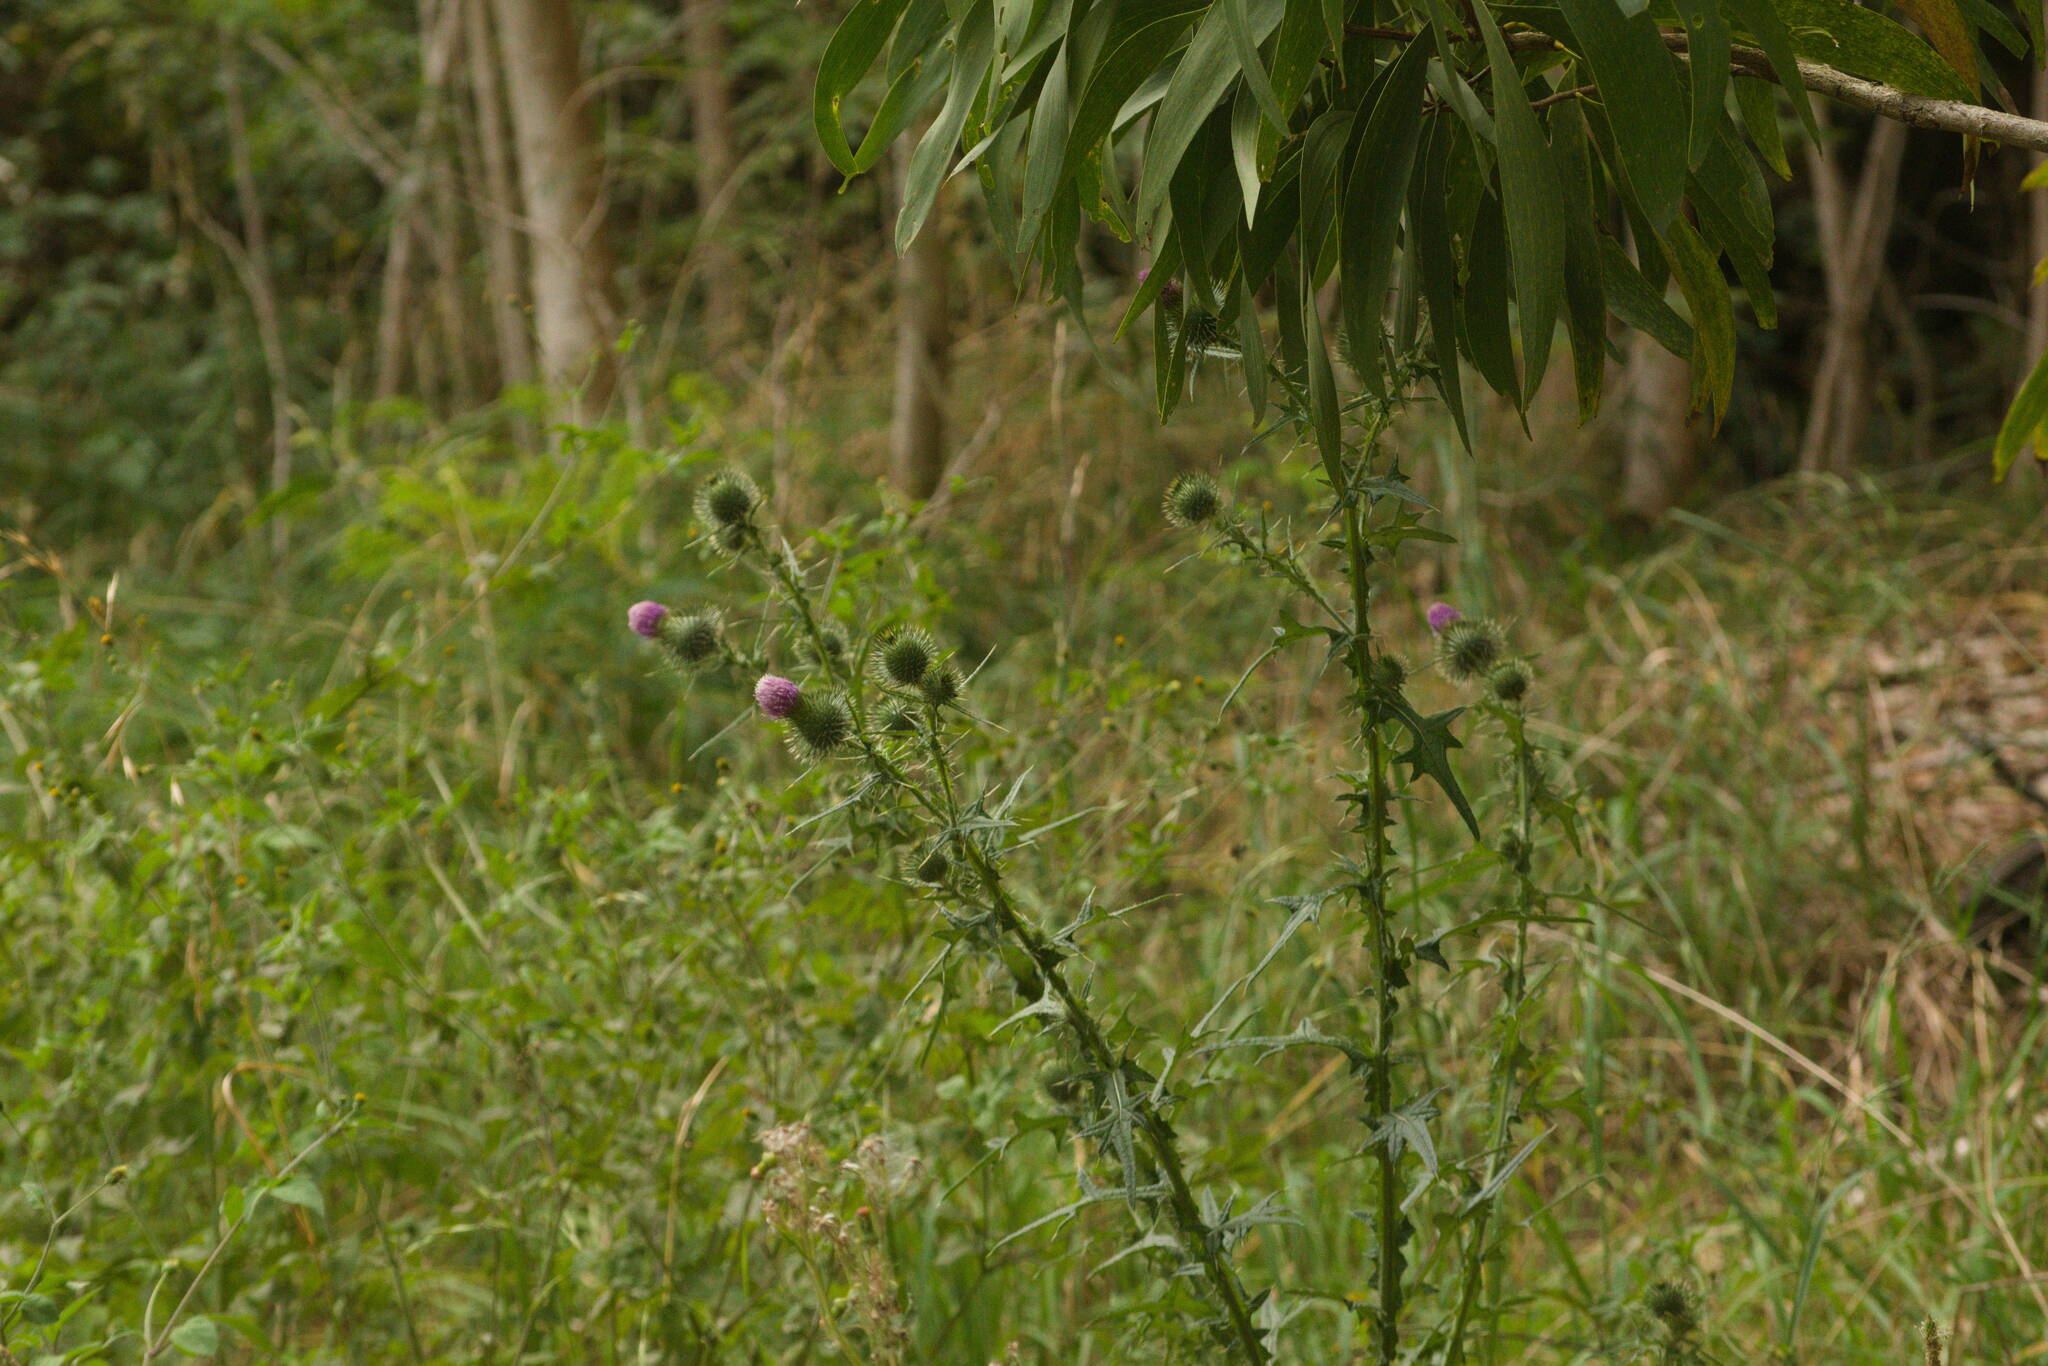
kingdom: Plantae
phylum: Tracheophyta
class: Magnoliopsida
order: Asterales
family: Asteraceae
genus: Cirsium
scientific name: Cirsium vulgare
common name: Bull thistle
